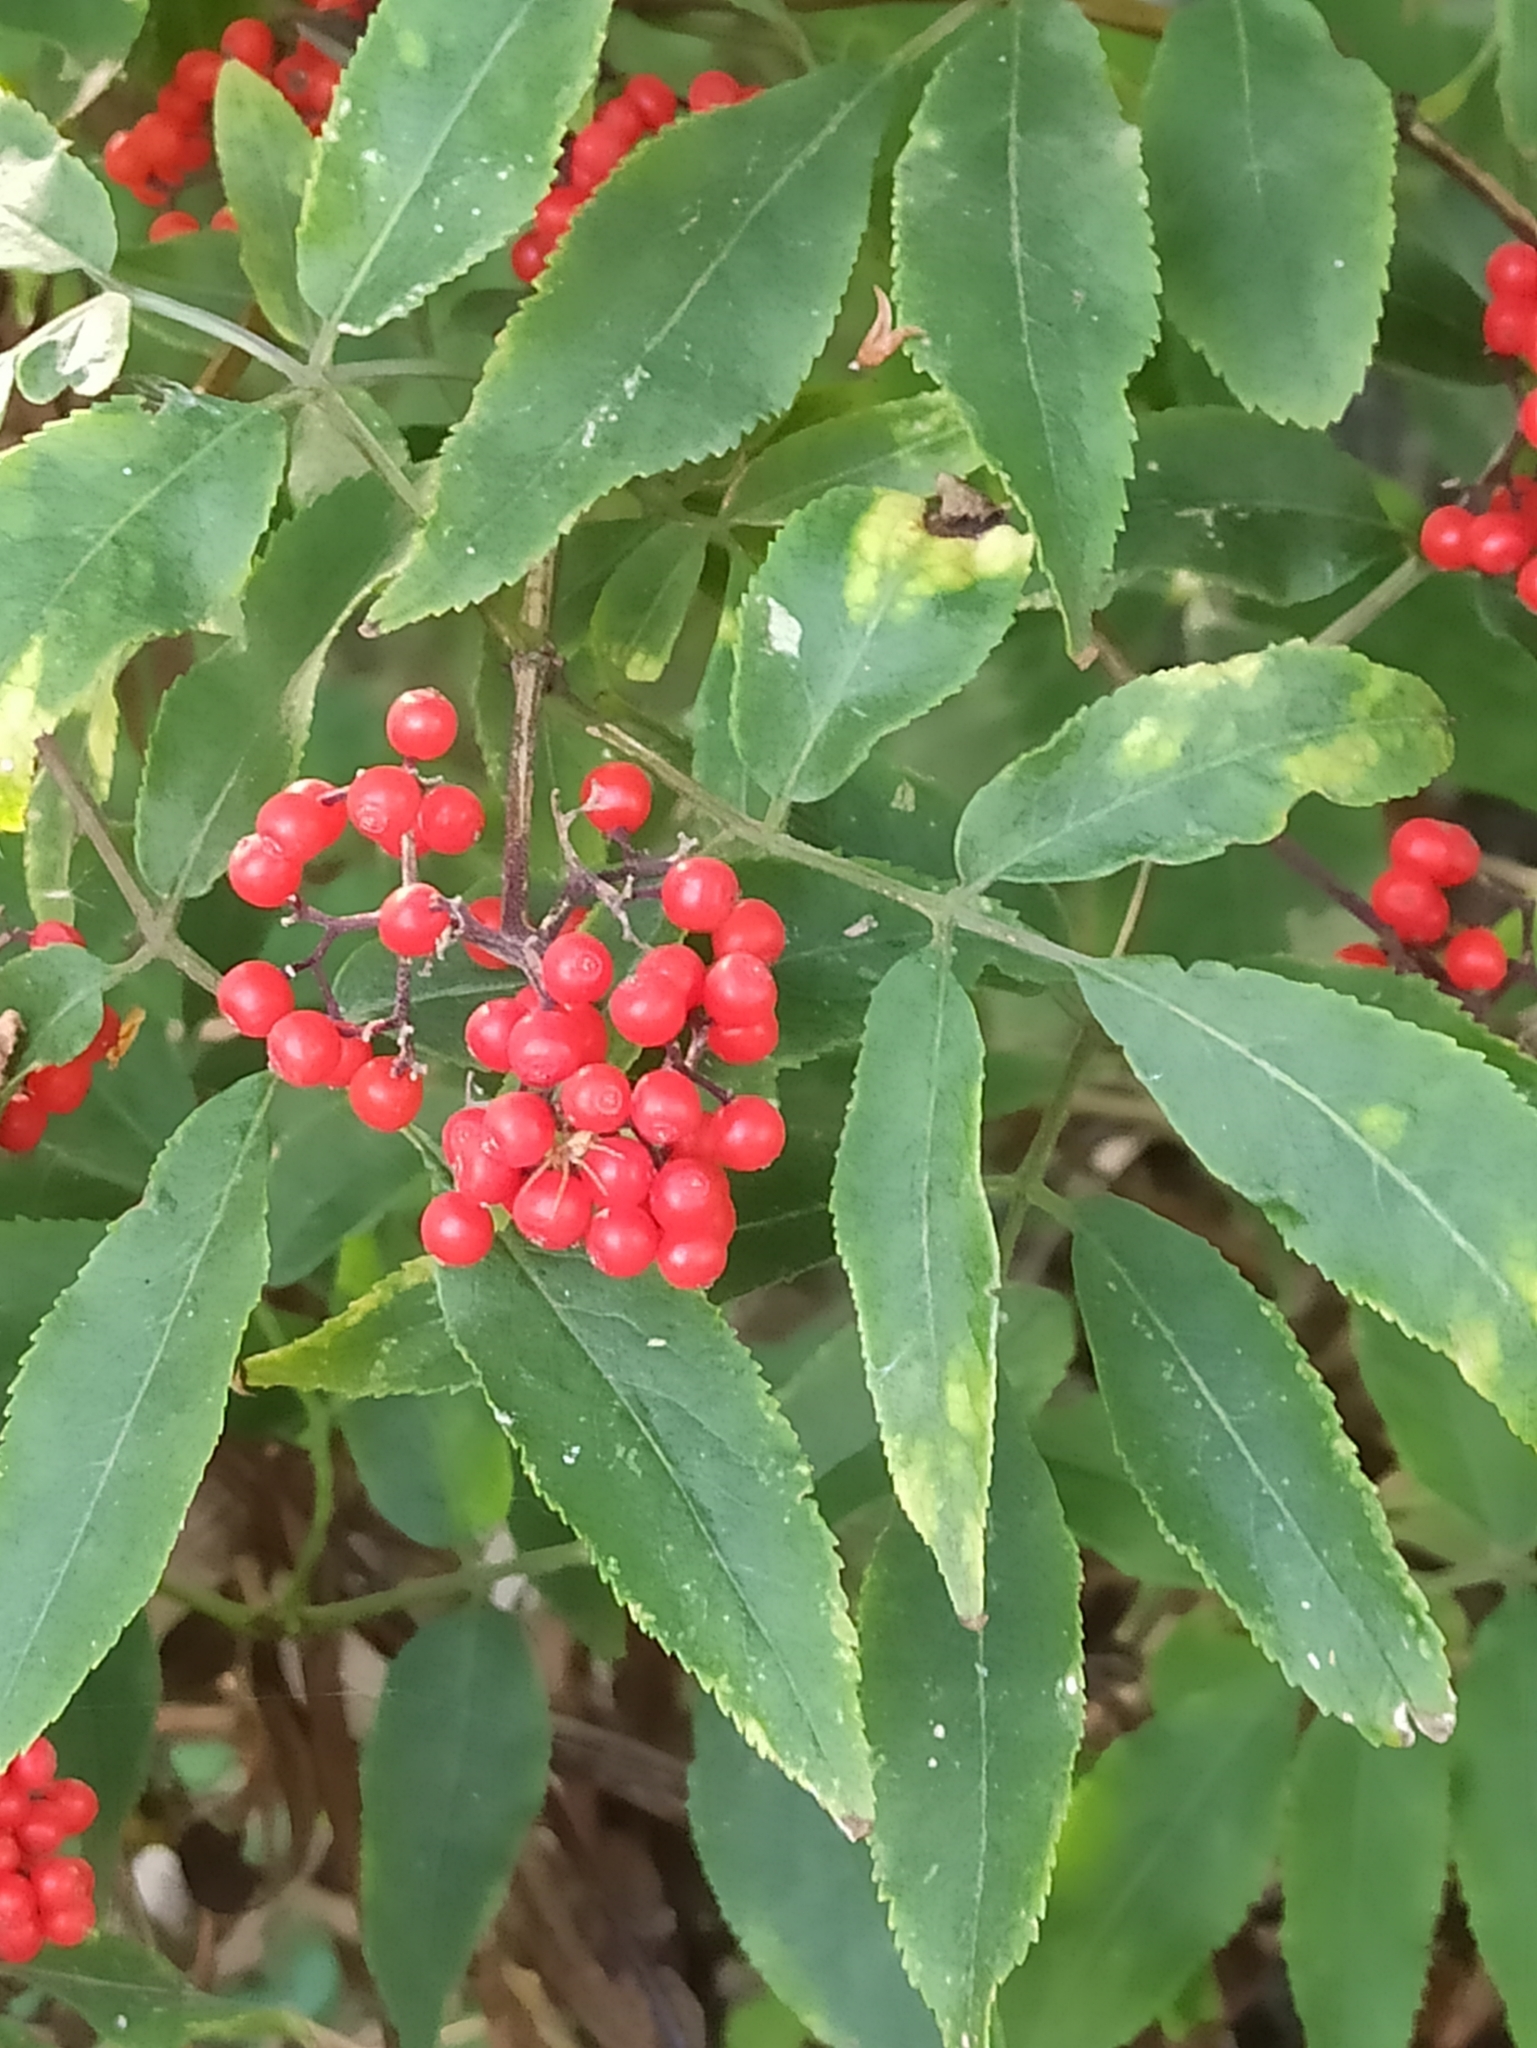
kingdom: Plantae
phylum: Tracheophyta
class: Magnoliopsida
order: Dipsacales
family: Viburnaceae
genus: Sambucus
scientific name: Sambucus racemosa
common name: Red-berried elder
